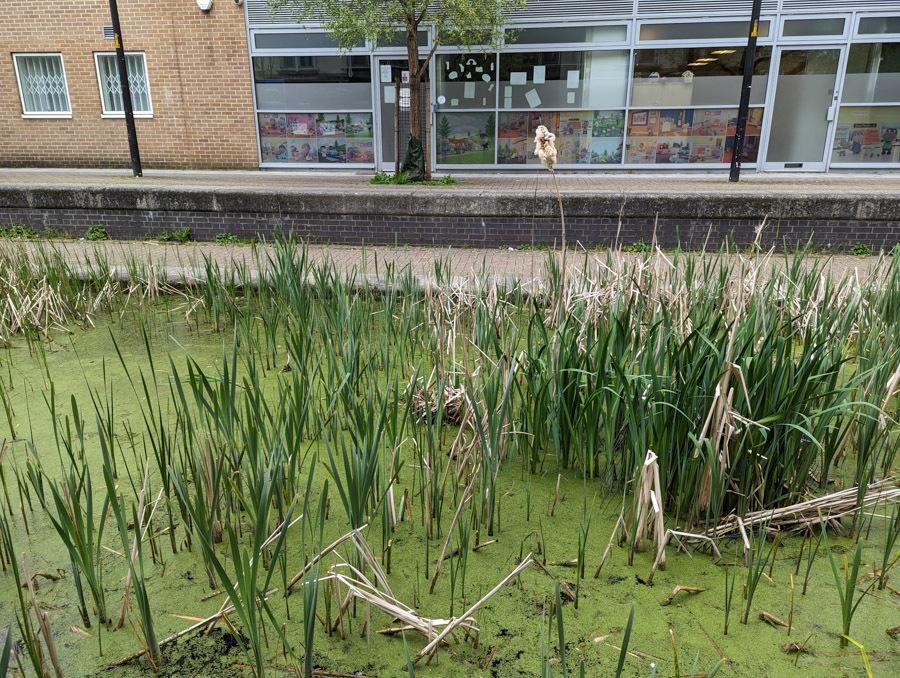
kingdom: Plantae
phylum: Tracheophyta
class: Liliopsida
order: Poales
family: Typhaceae
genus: Typha
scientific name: Typha latifolia
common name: Broadleaf cattail
